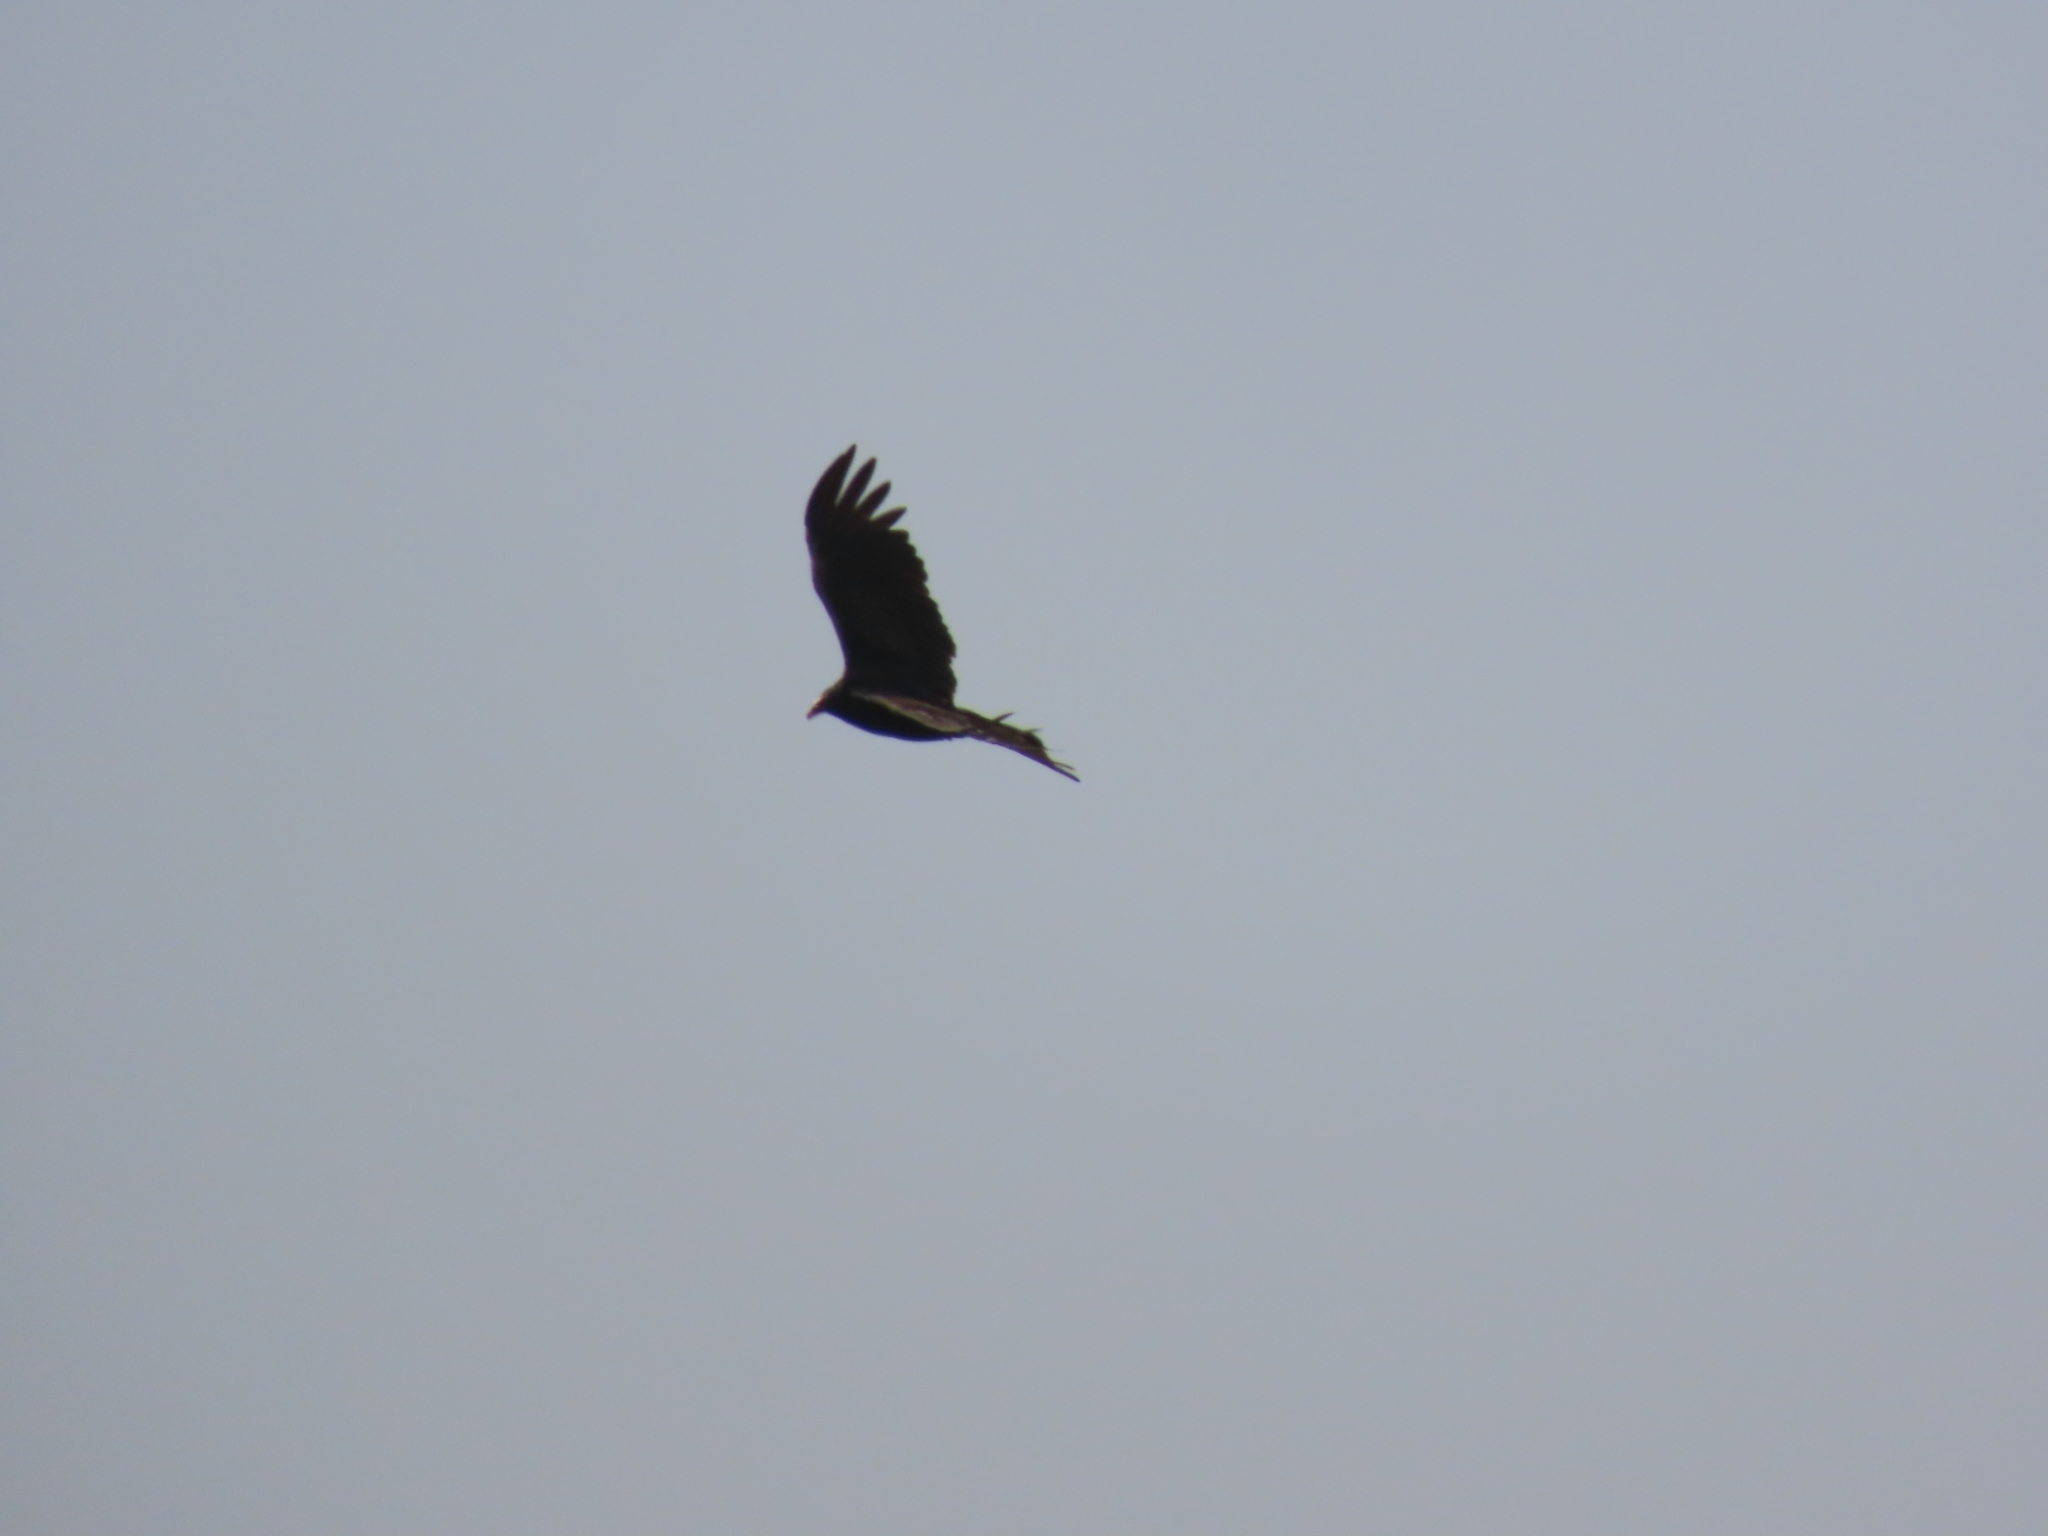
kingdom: Animalia
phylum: Chordata
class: Aves
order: Accipitriformes
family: Cathartidae
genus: Cathartes
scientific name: Cathartes aura
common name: Turkey vulture
